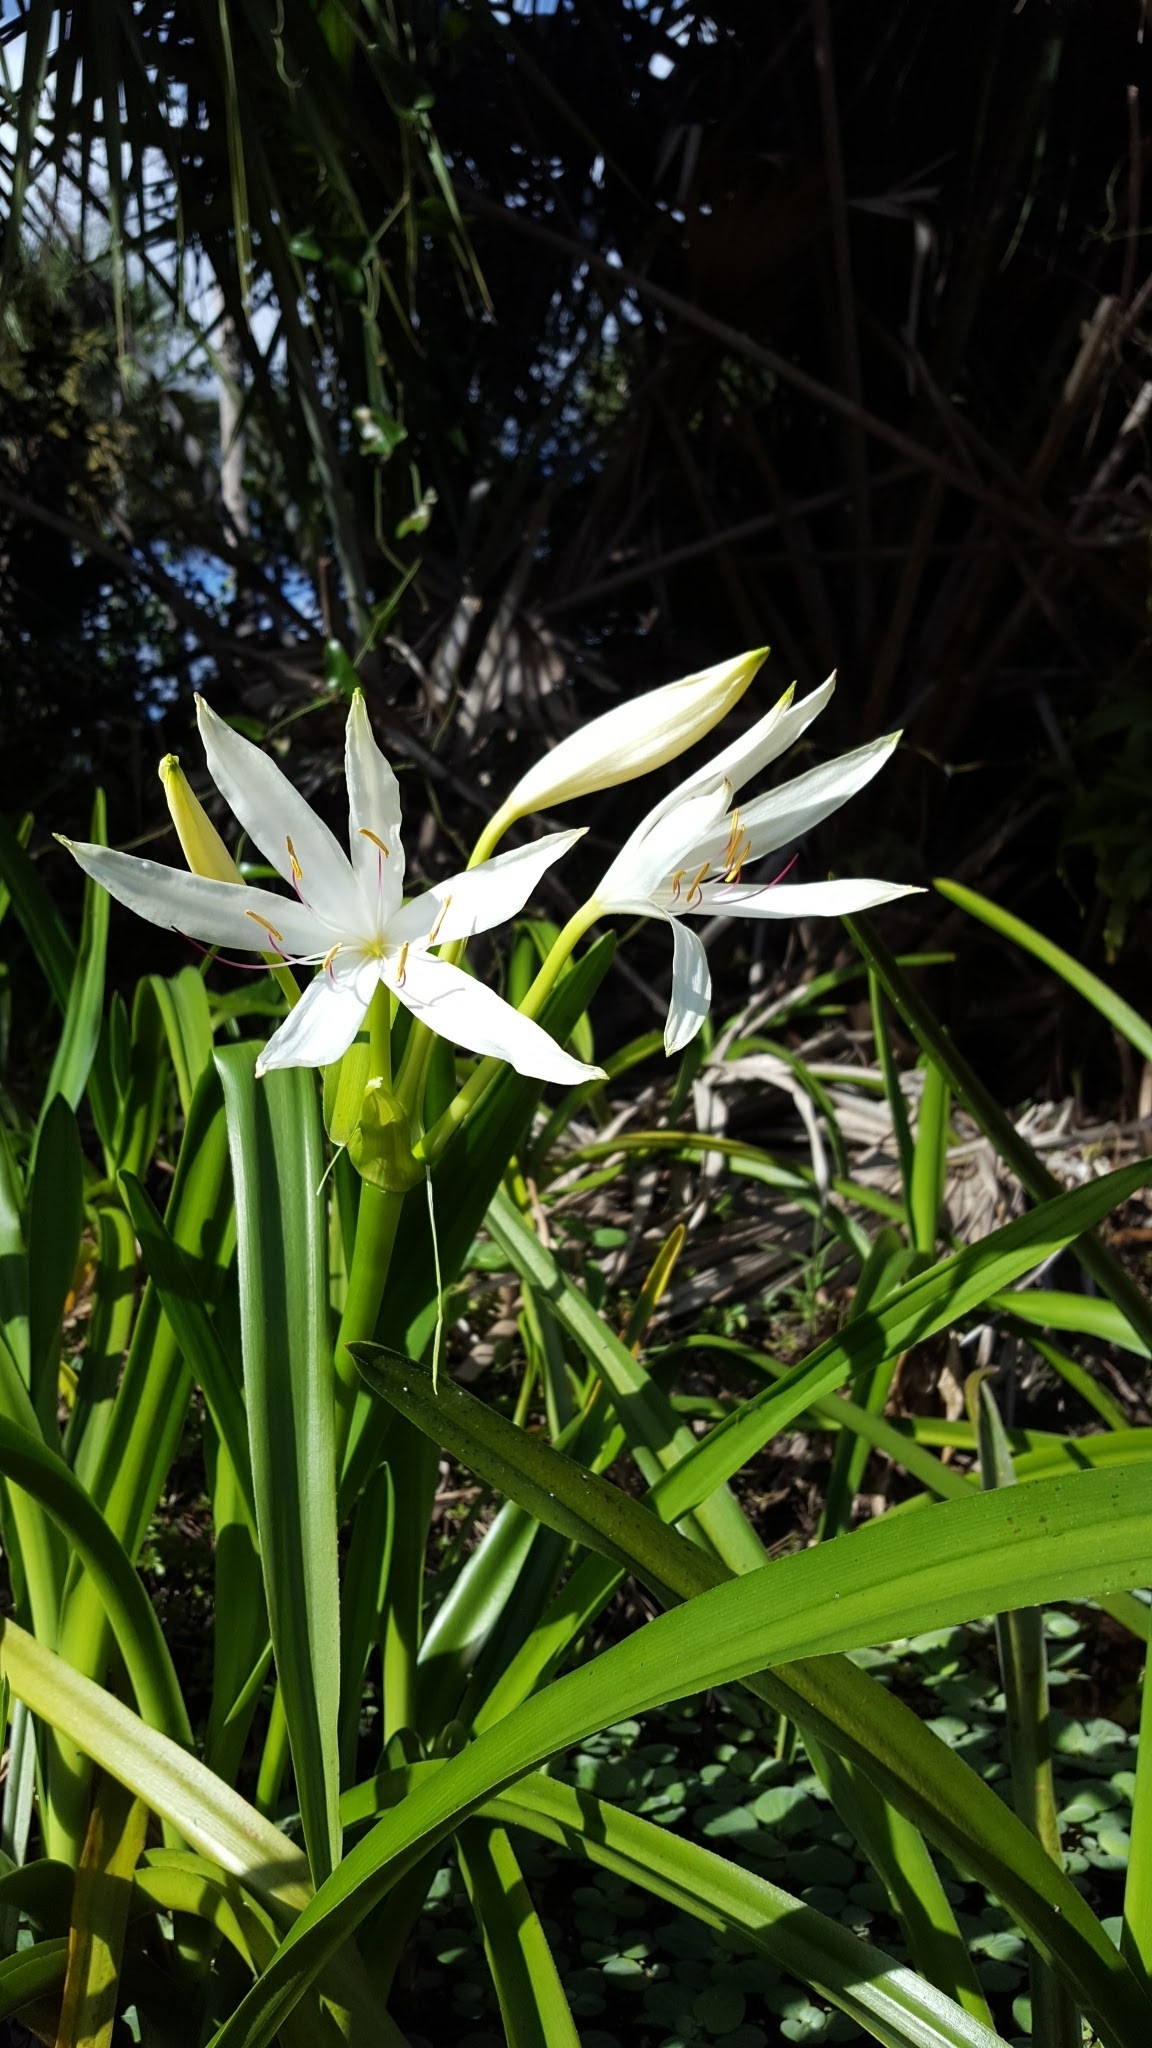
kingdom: Plantae
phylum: Tracheophyta
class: Liliopsida
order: Asparagales
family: Amaryllidaceae
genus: Crinum
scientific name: Crinum americanum
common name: Florida swamp-lily
